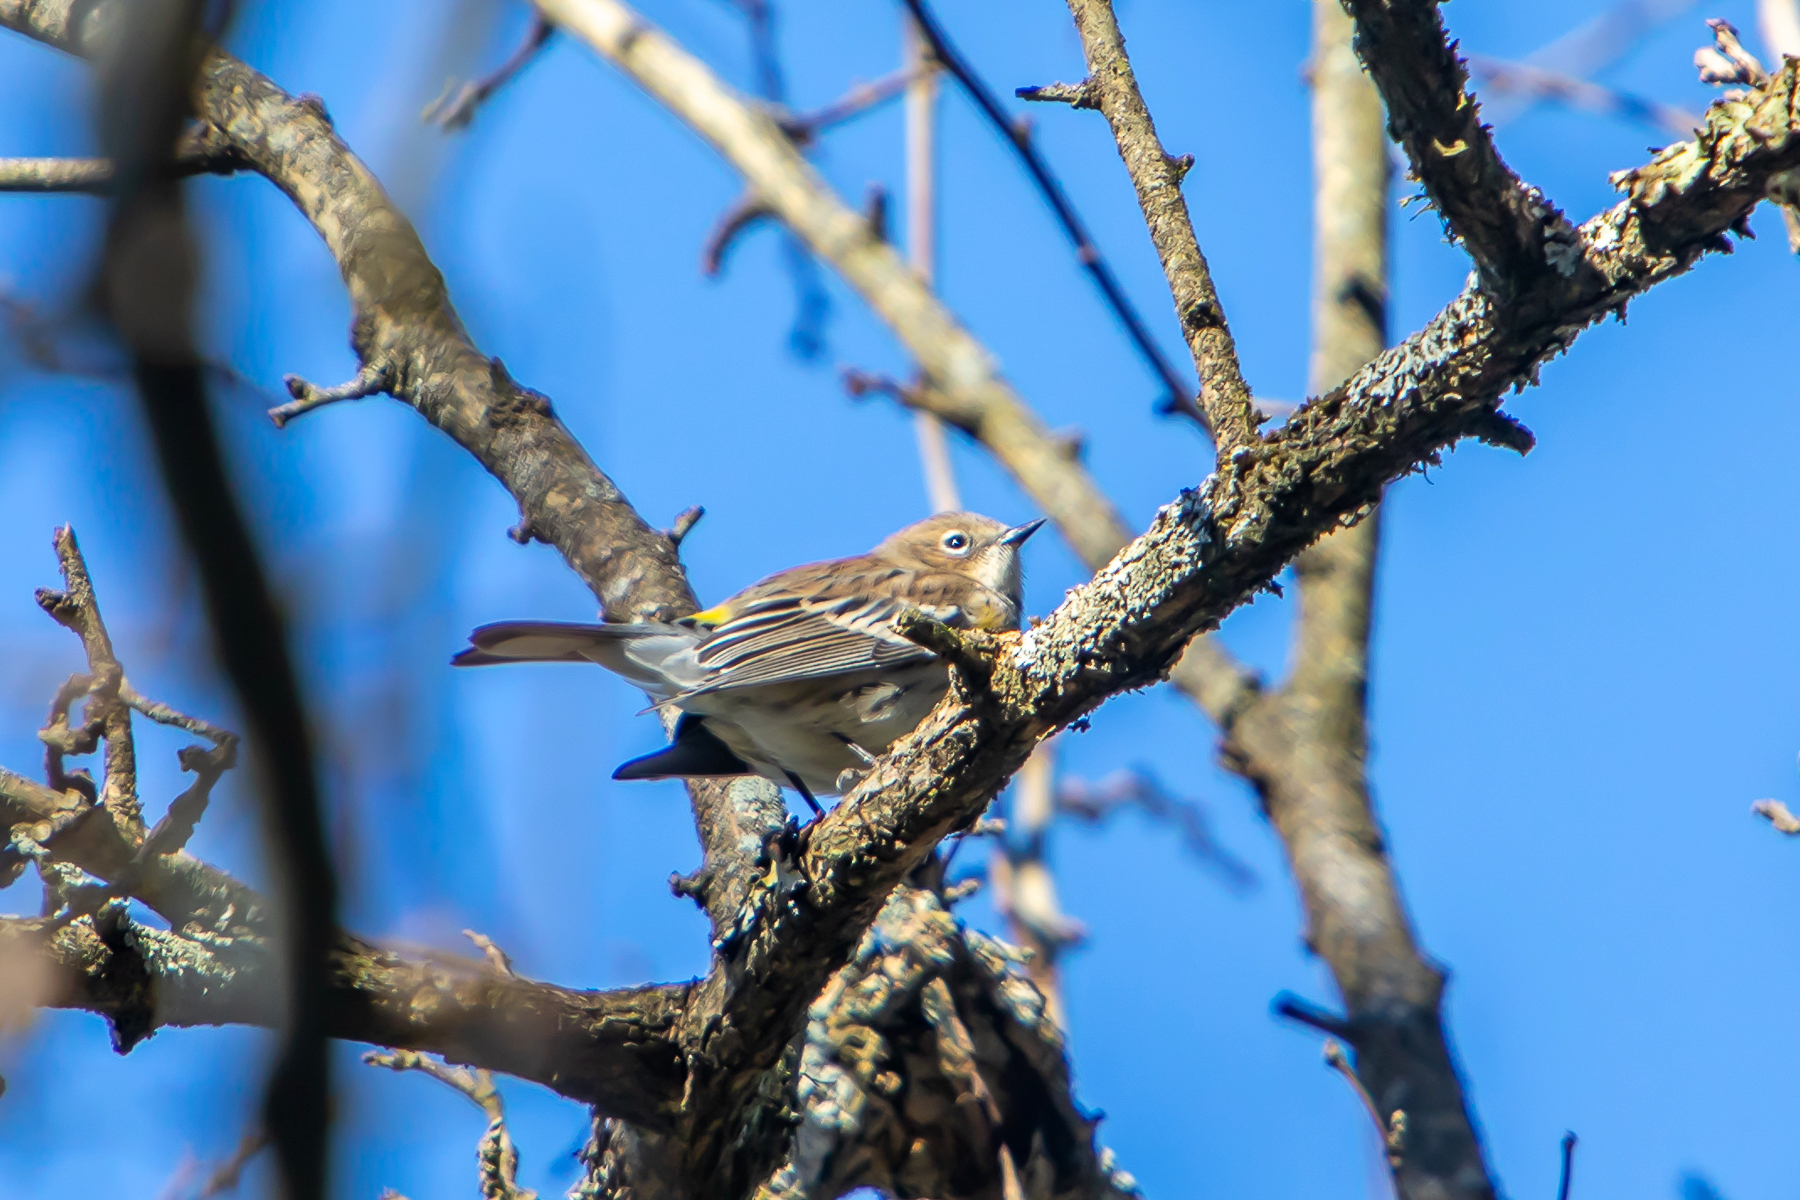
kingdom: Animalia
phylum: Chordata
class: Aves
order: Passeriformes
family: Parulidae
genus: Setophaga
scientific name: Setophaga coronata
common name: Myrtle warbler
